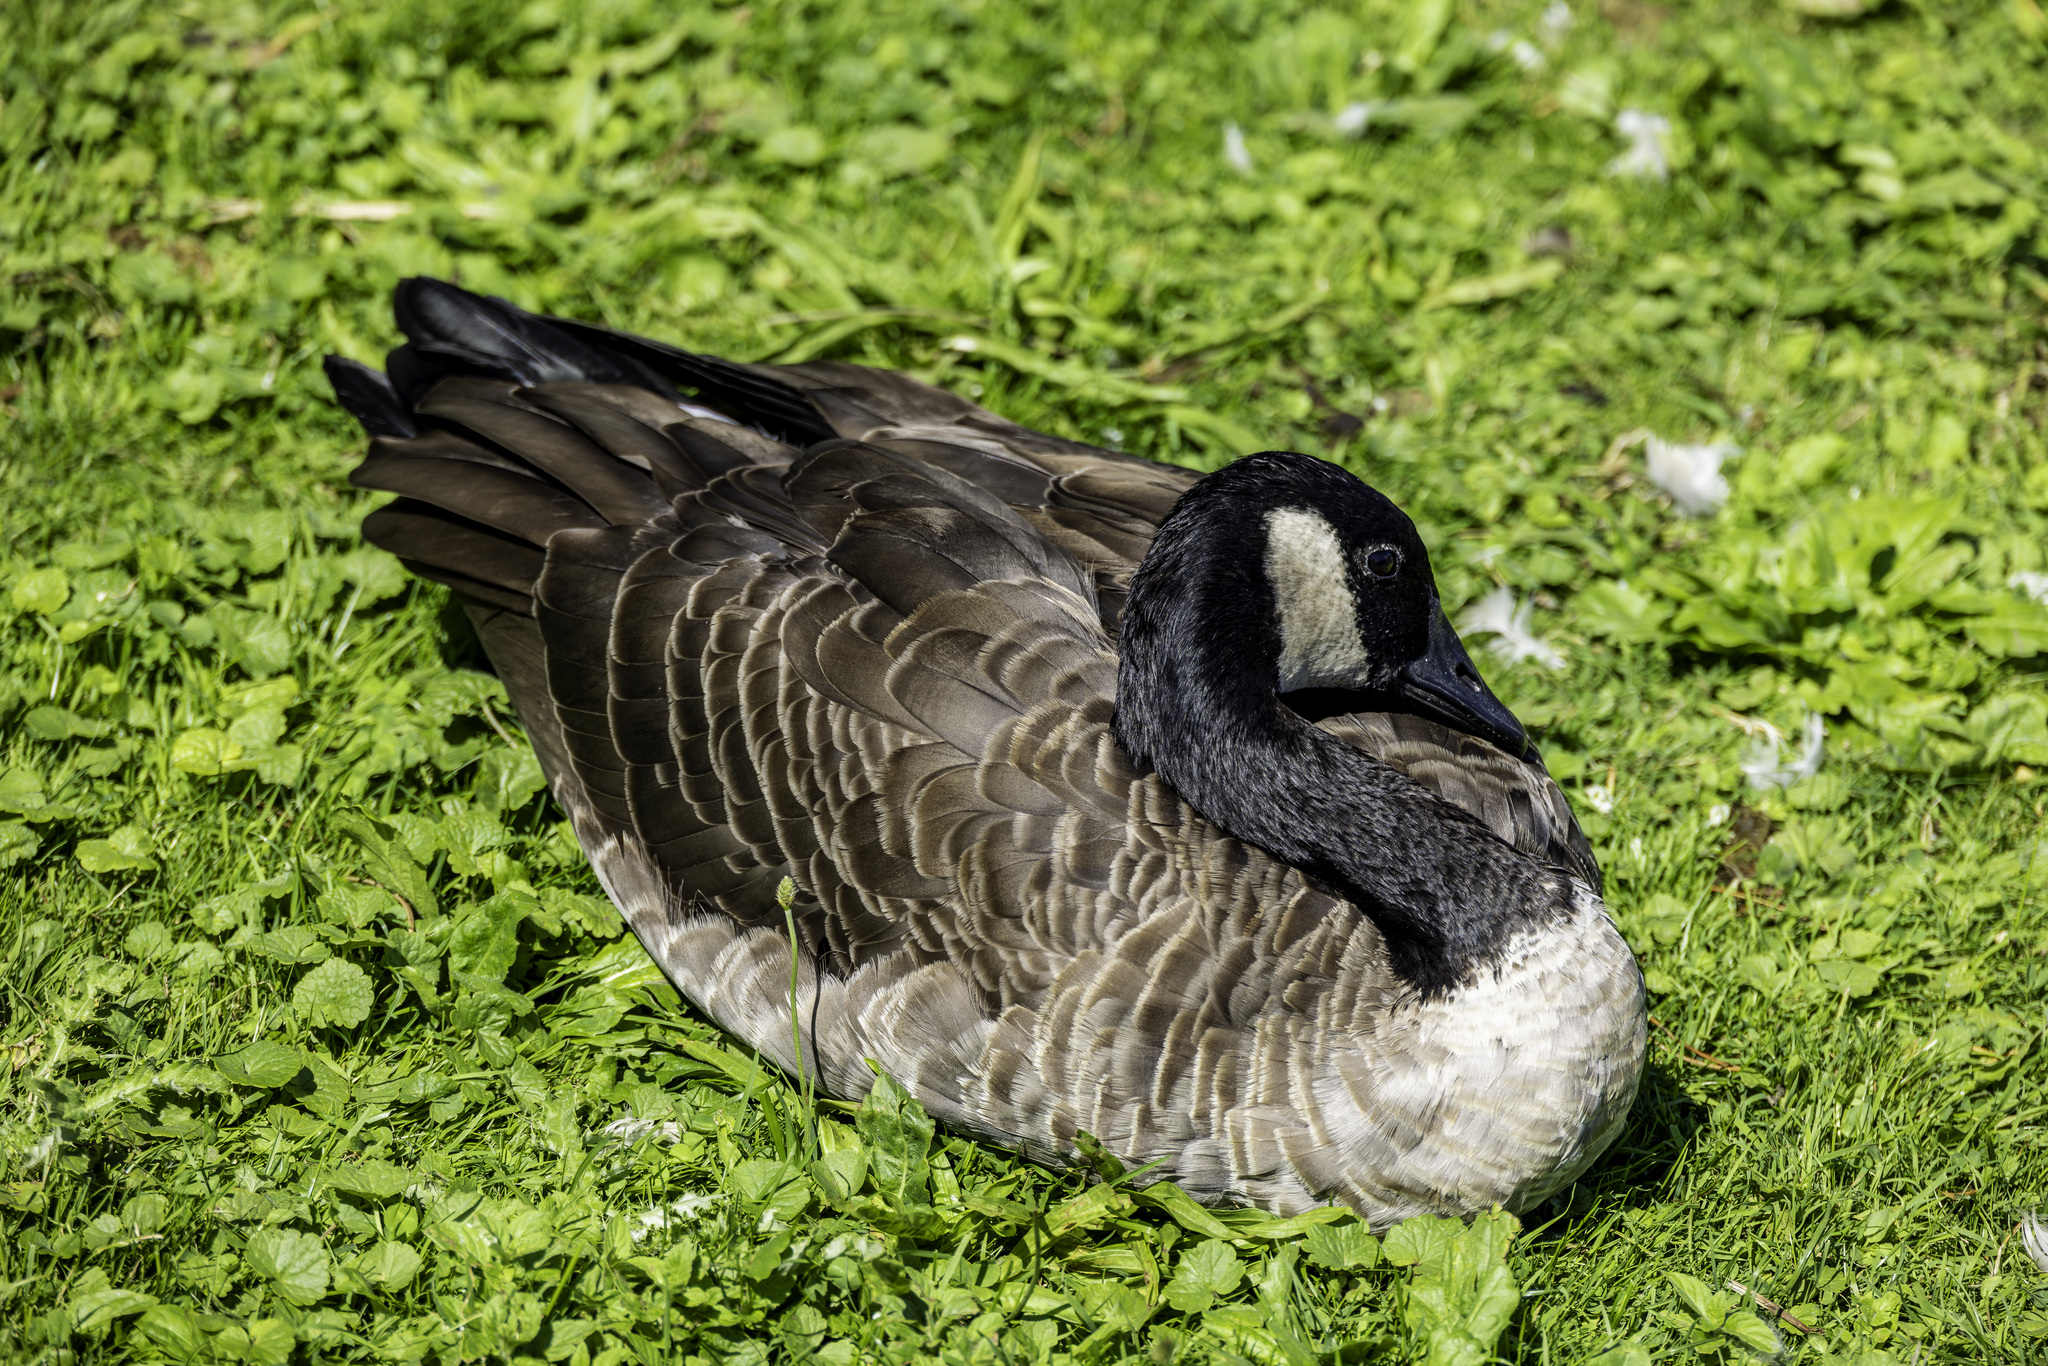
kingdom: Animalia
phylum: Chordata
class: Aves
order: Anseriformes
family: Anatidae
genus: Branta
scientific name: Branta canadensis
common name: Canada goose
